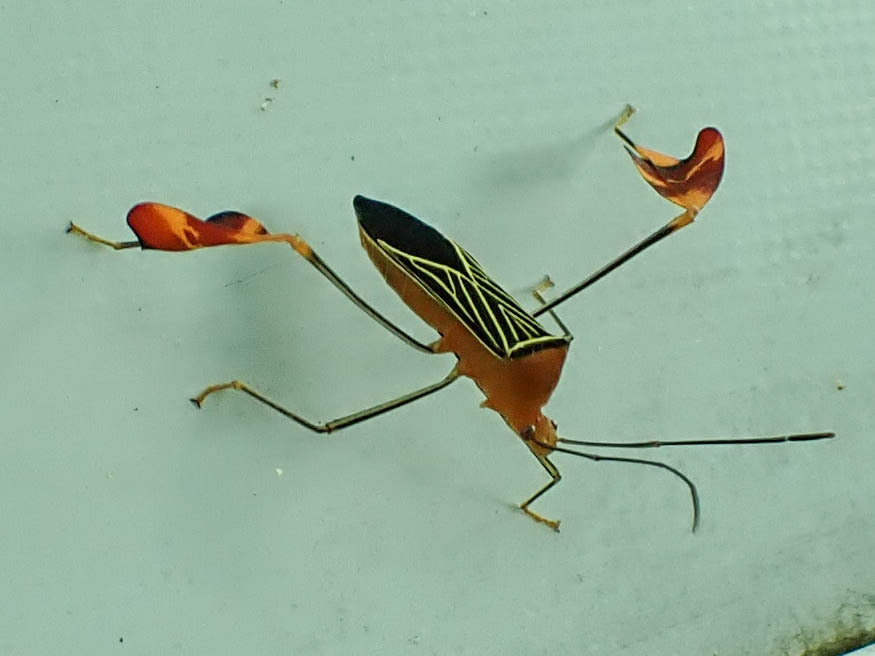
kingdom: Animalia
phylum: Arthropoda
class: Insecta
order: Hemiptera
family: Coreidae
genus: Bitta
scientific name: Bitta
